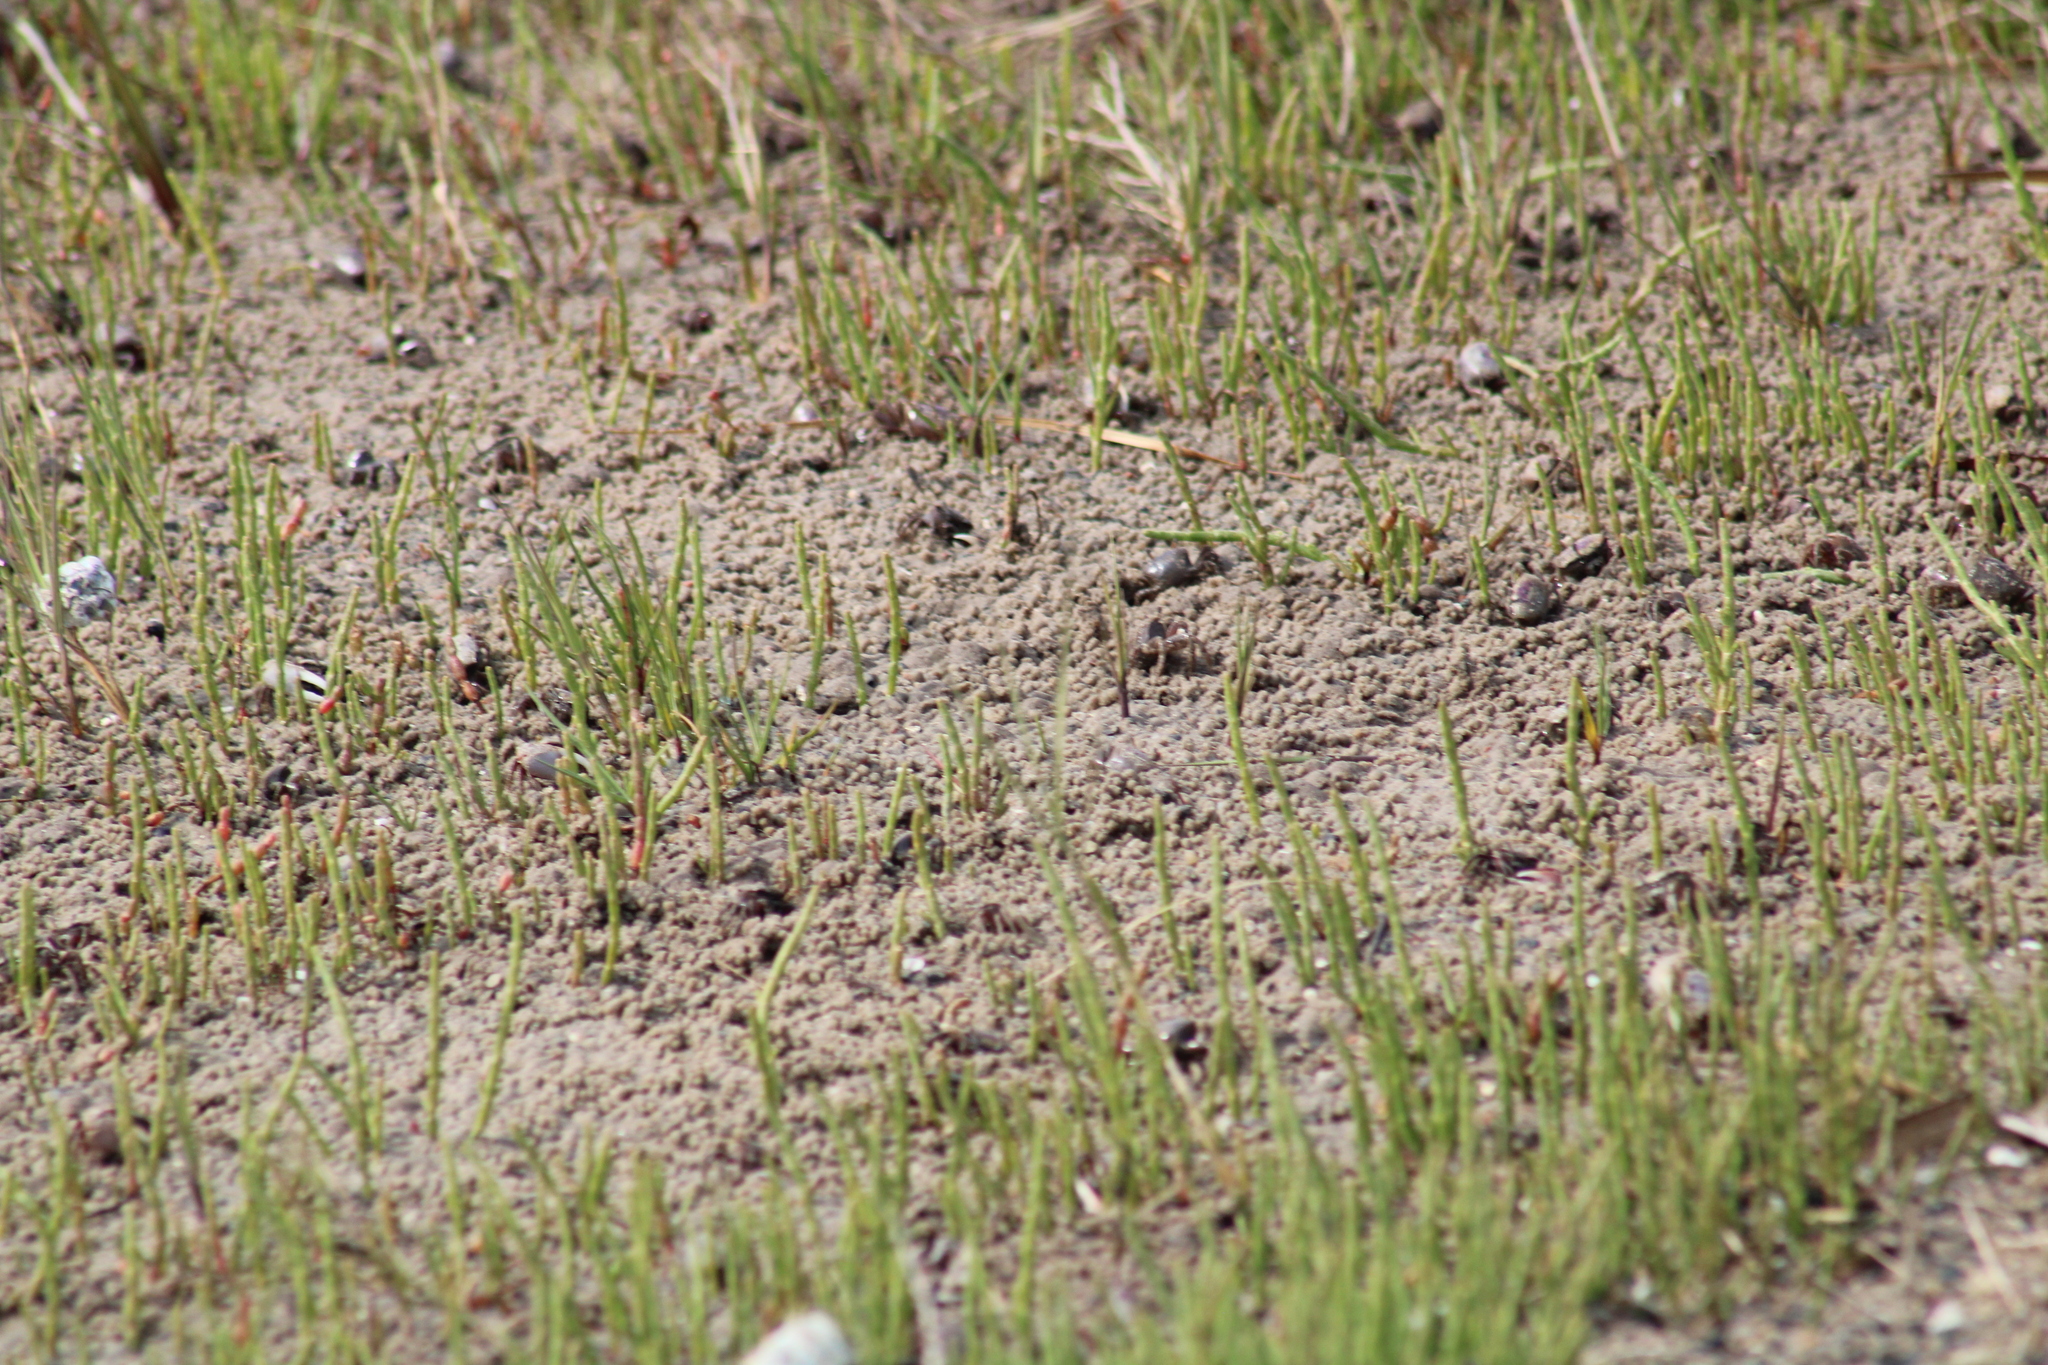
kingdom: Animalia
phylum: Arthropoda
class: Malacostraca
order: Decapoda
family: Ocypodidae
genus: Leptuca
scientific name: Leptuca pugilator
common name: Atlantic sand fiddler crab
